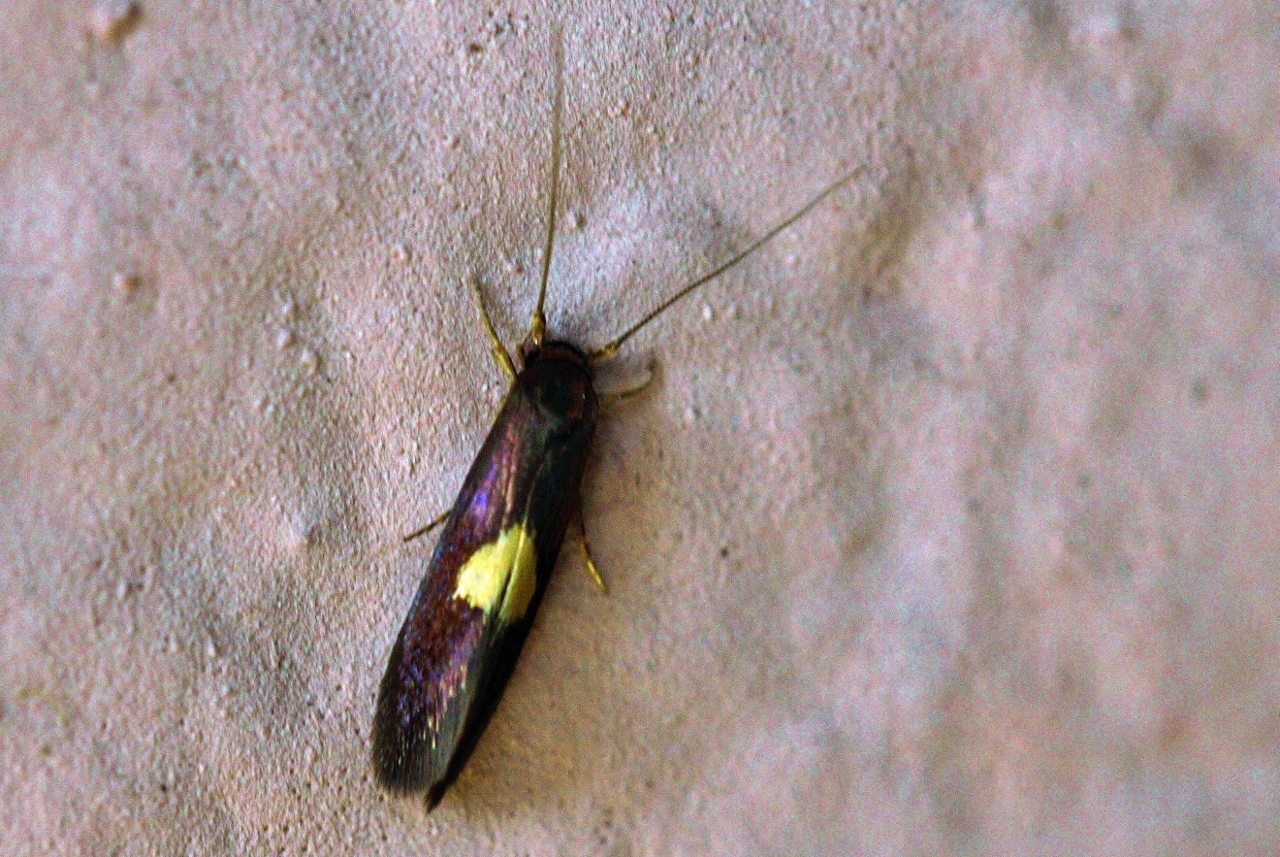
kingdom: Animalia
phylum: Arthropoda
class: Insecta
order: Lepidoptera
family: Tineidae
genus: Wegneria
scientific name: Wegneria chrysophthalma
